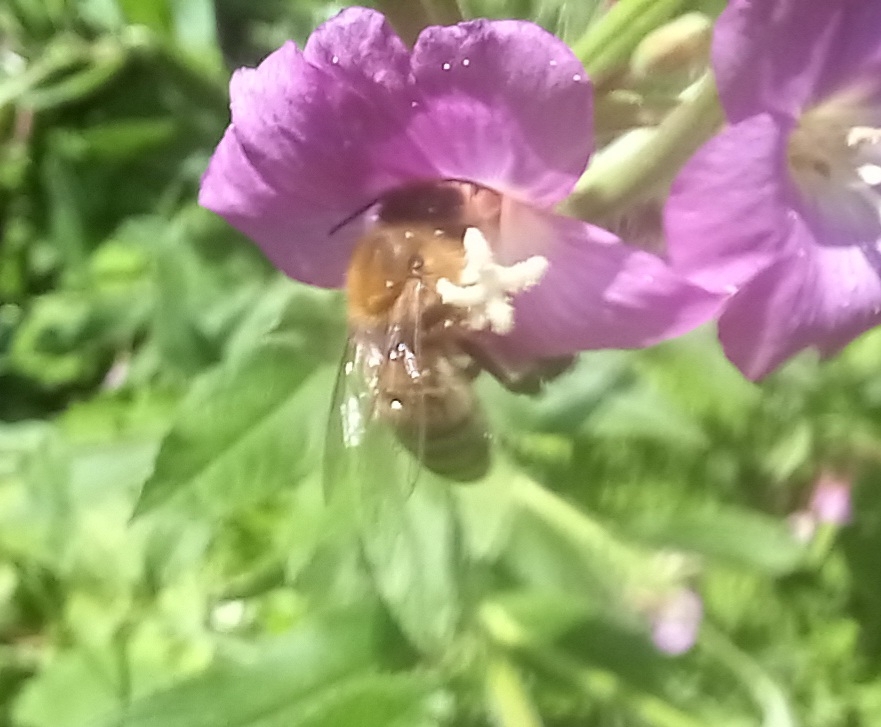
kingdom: Animalia
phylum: Arthropoda
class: Insecta
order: Hymenoptera
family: Apidae
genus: Apis
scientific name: Apis mellifera
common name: Honey bee
